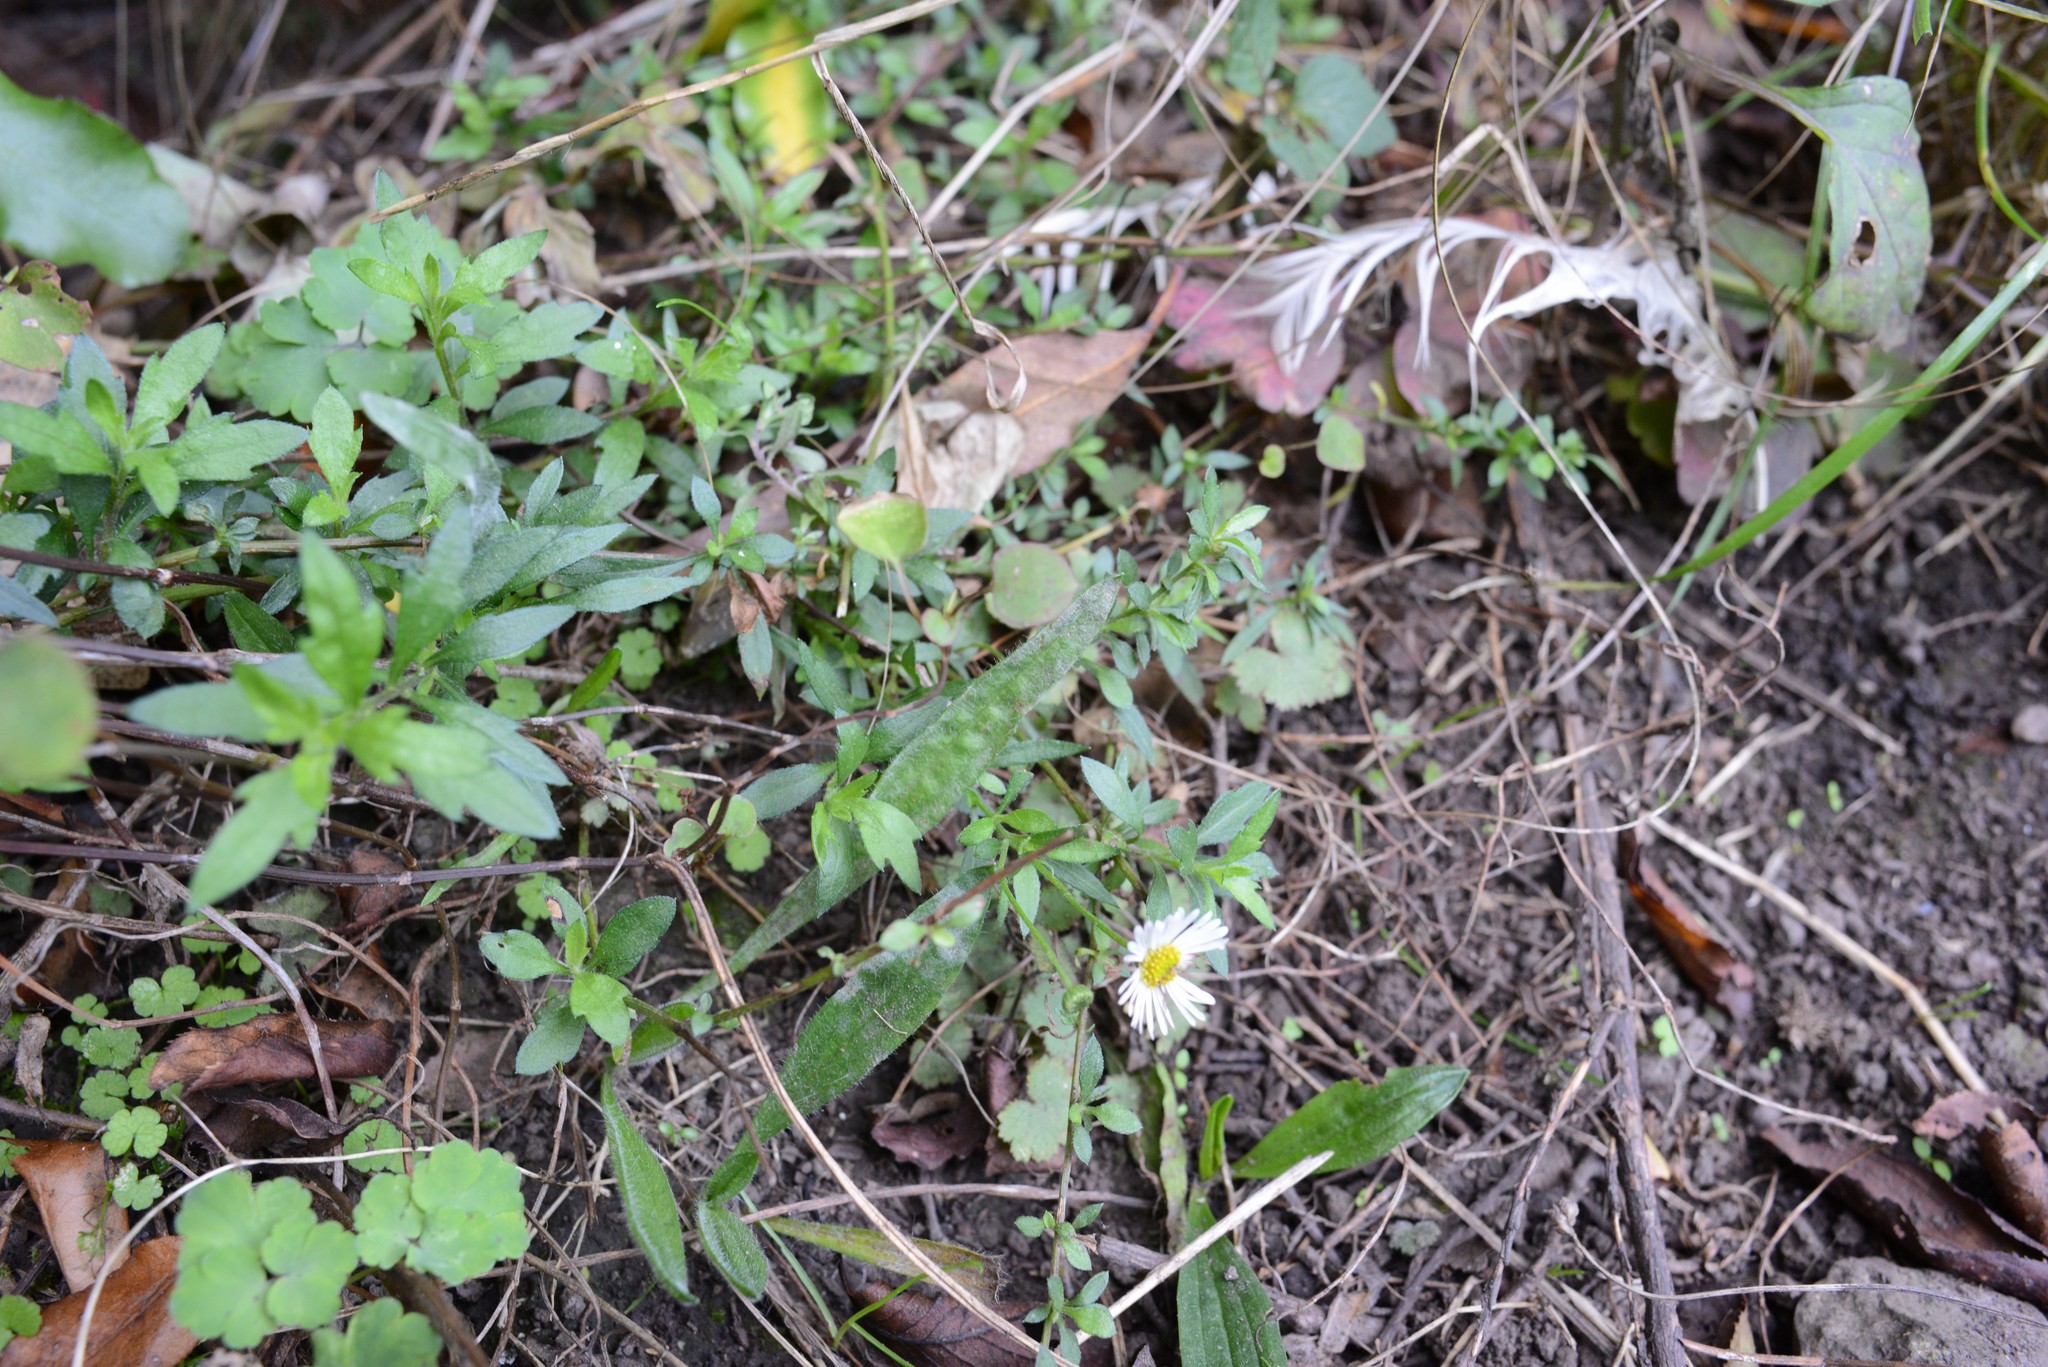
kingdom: Plantae
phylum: Tracheophyta
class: Magnoliopsida
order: Asterales
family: Asteraceae
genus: Erigeron
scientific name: Erigeron karvinskianus
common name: Mexican fleabane
